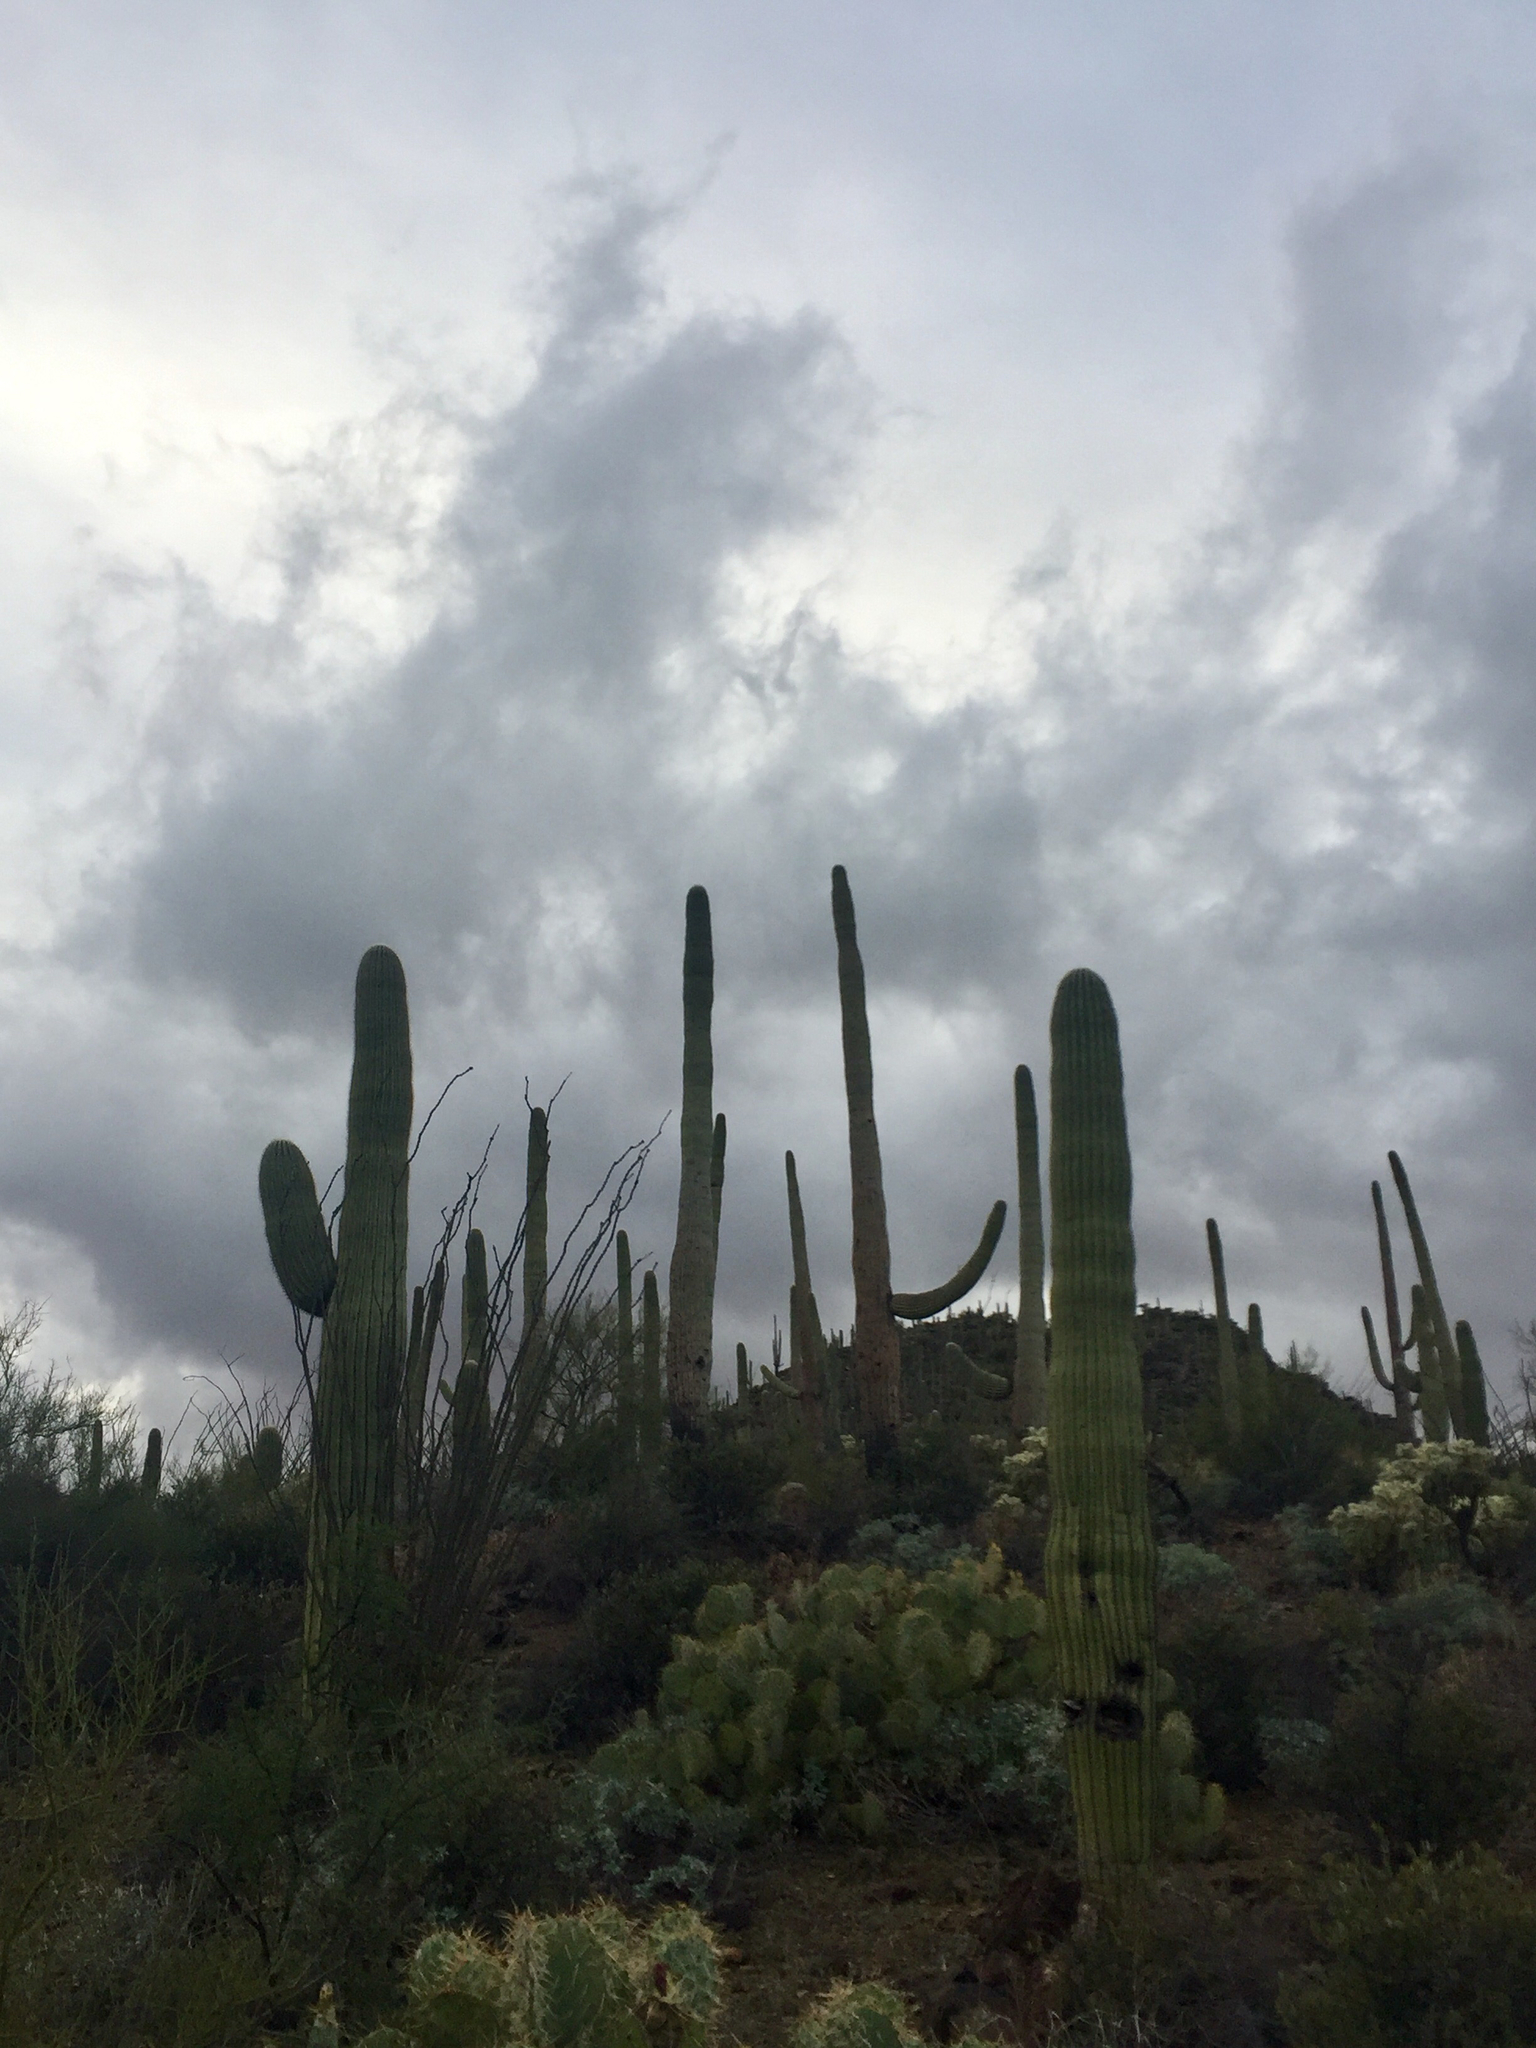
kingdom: Plantae
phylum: Tracheophyta
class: Magnoliopsida
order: Caryophyllales
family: Cactaceae
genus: Carnegiea
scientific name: Carnegiea gigantea
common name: Saguaro
